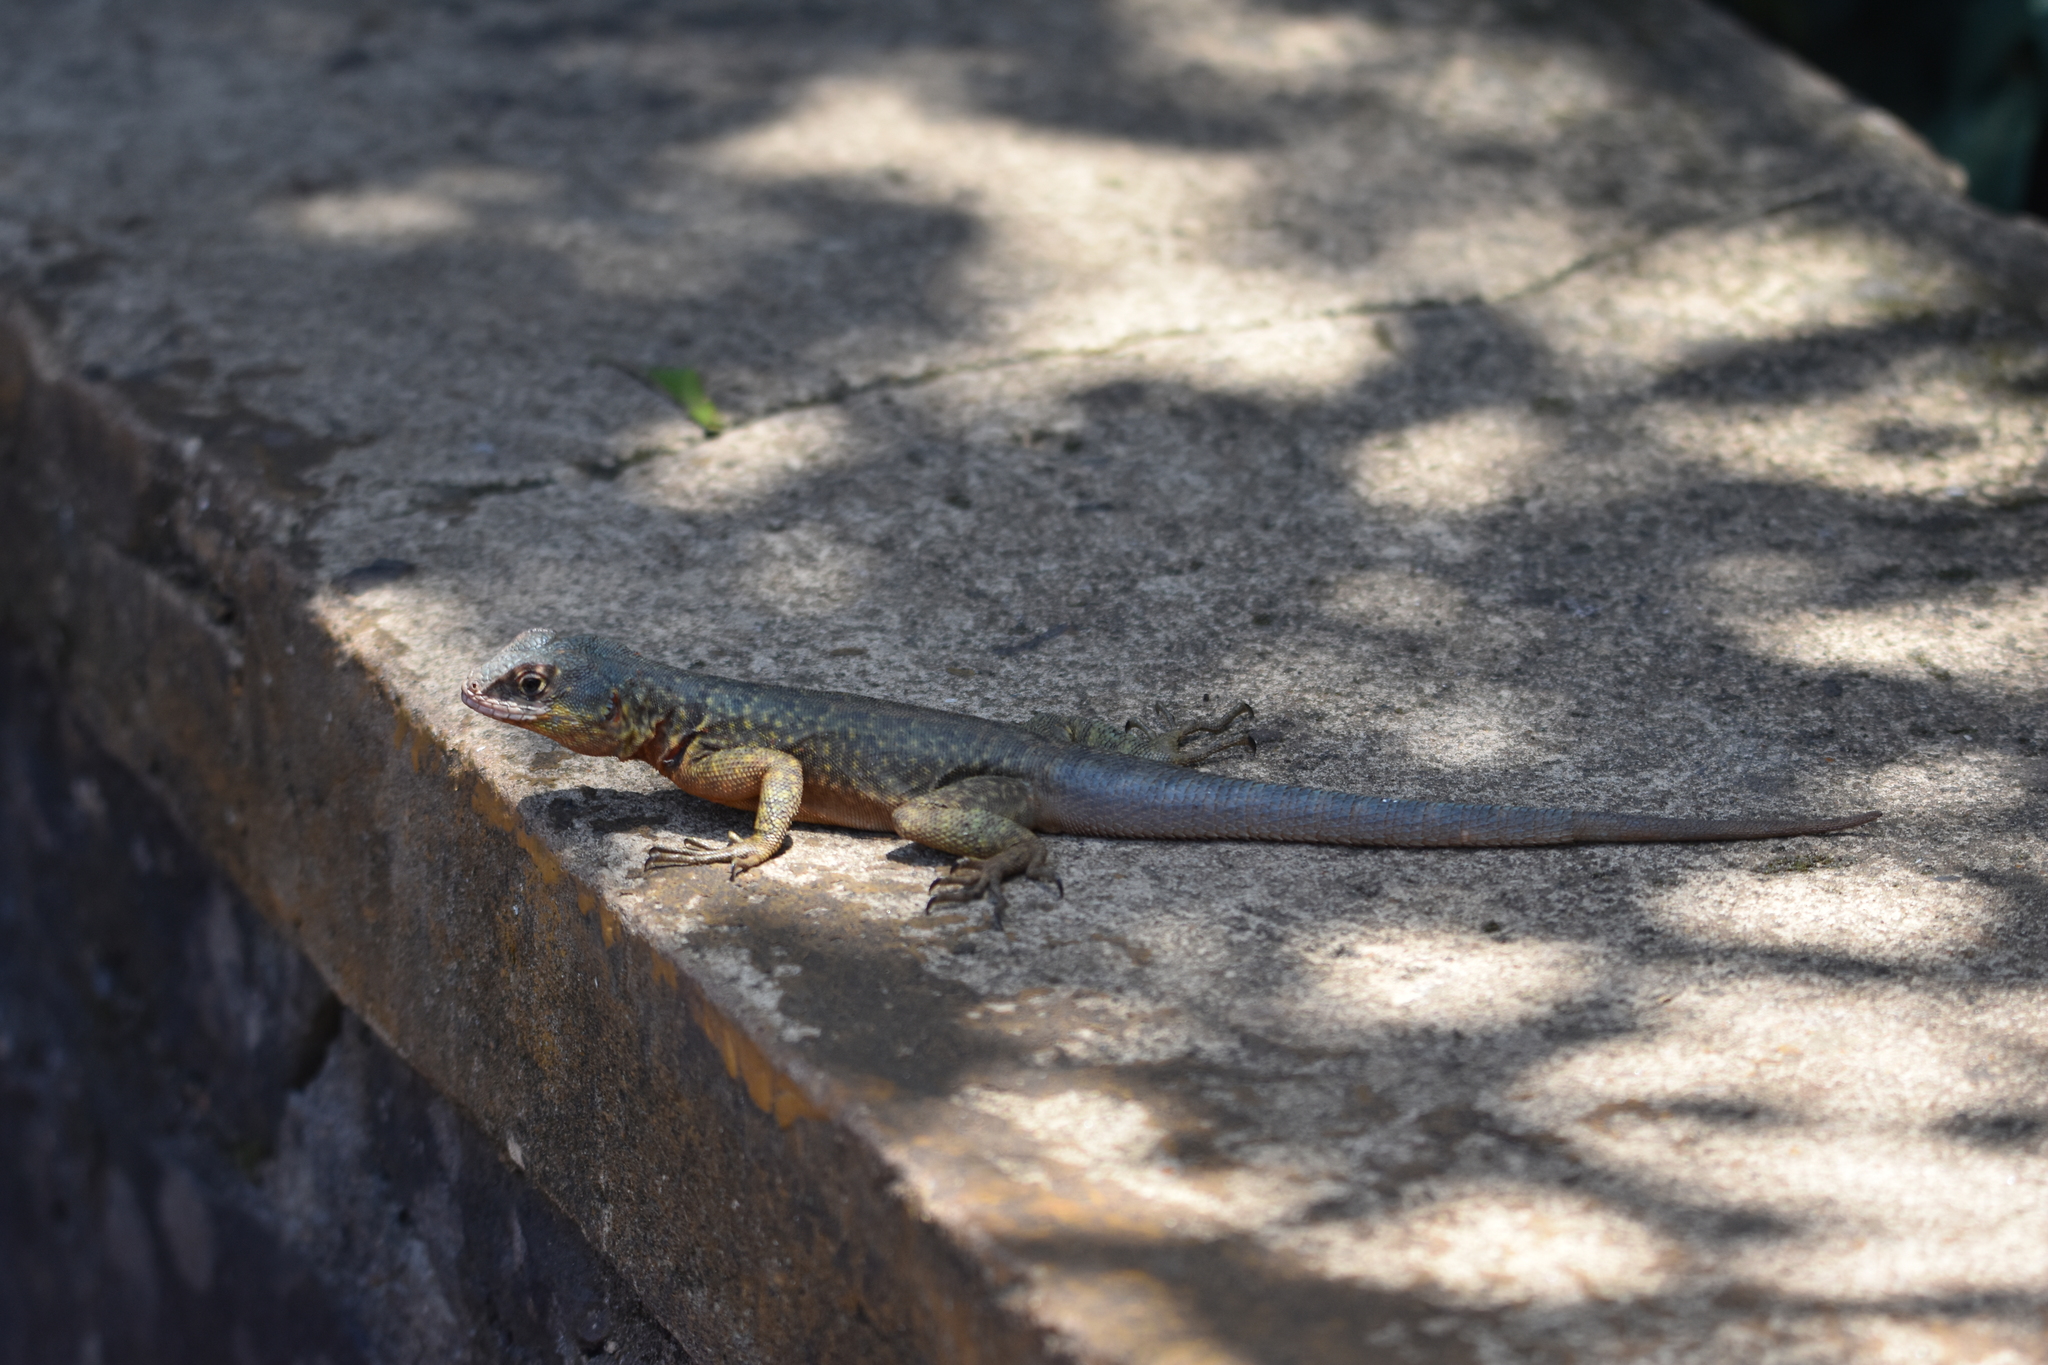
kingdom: Animalia
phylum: Chordata
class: Squamata
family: Tropiduridae
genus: Tropidurus
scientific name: Tropidurus catalanensis
